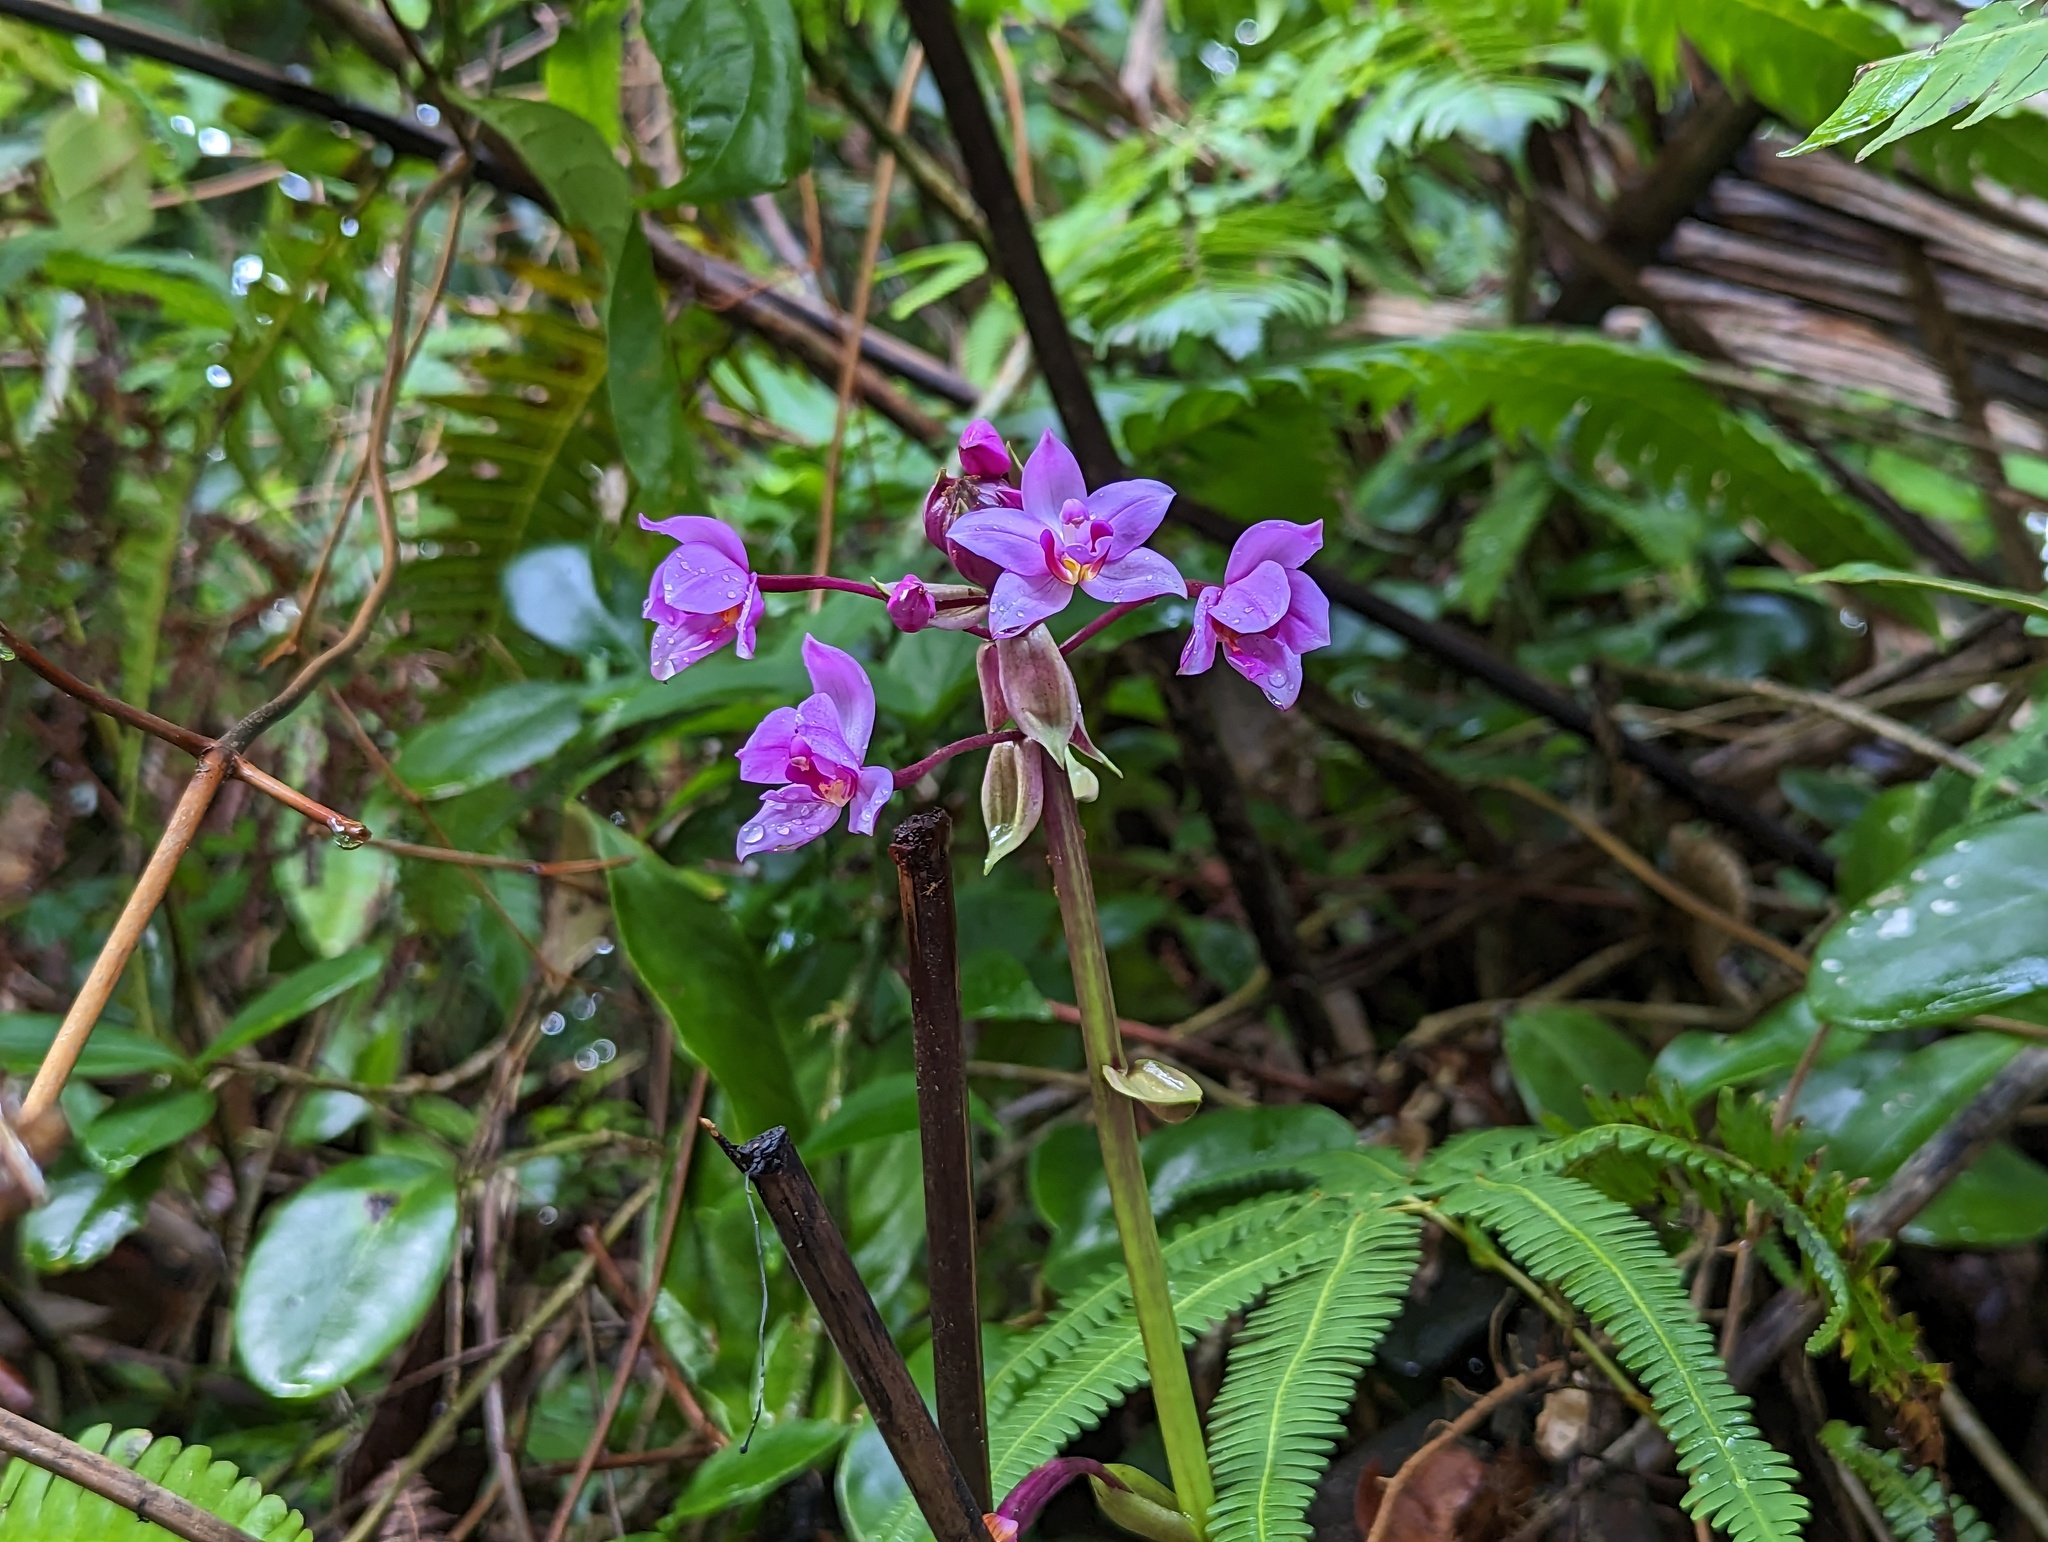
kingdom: Plantae
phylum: Tracheophyta
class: Liliopsida
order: Asparagales
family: Orchidaceae
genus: Spathoglottis
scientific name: Spathoglottis plicata
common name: Philippine ground orchid
